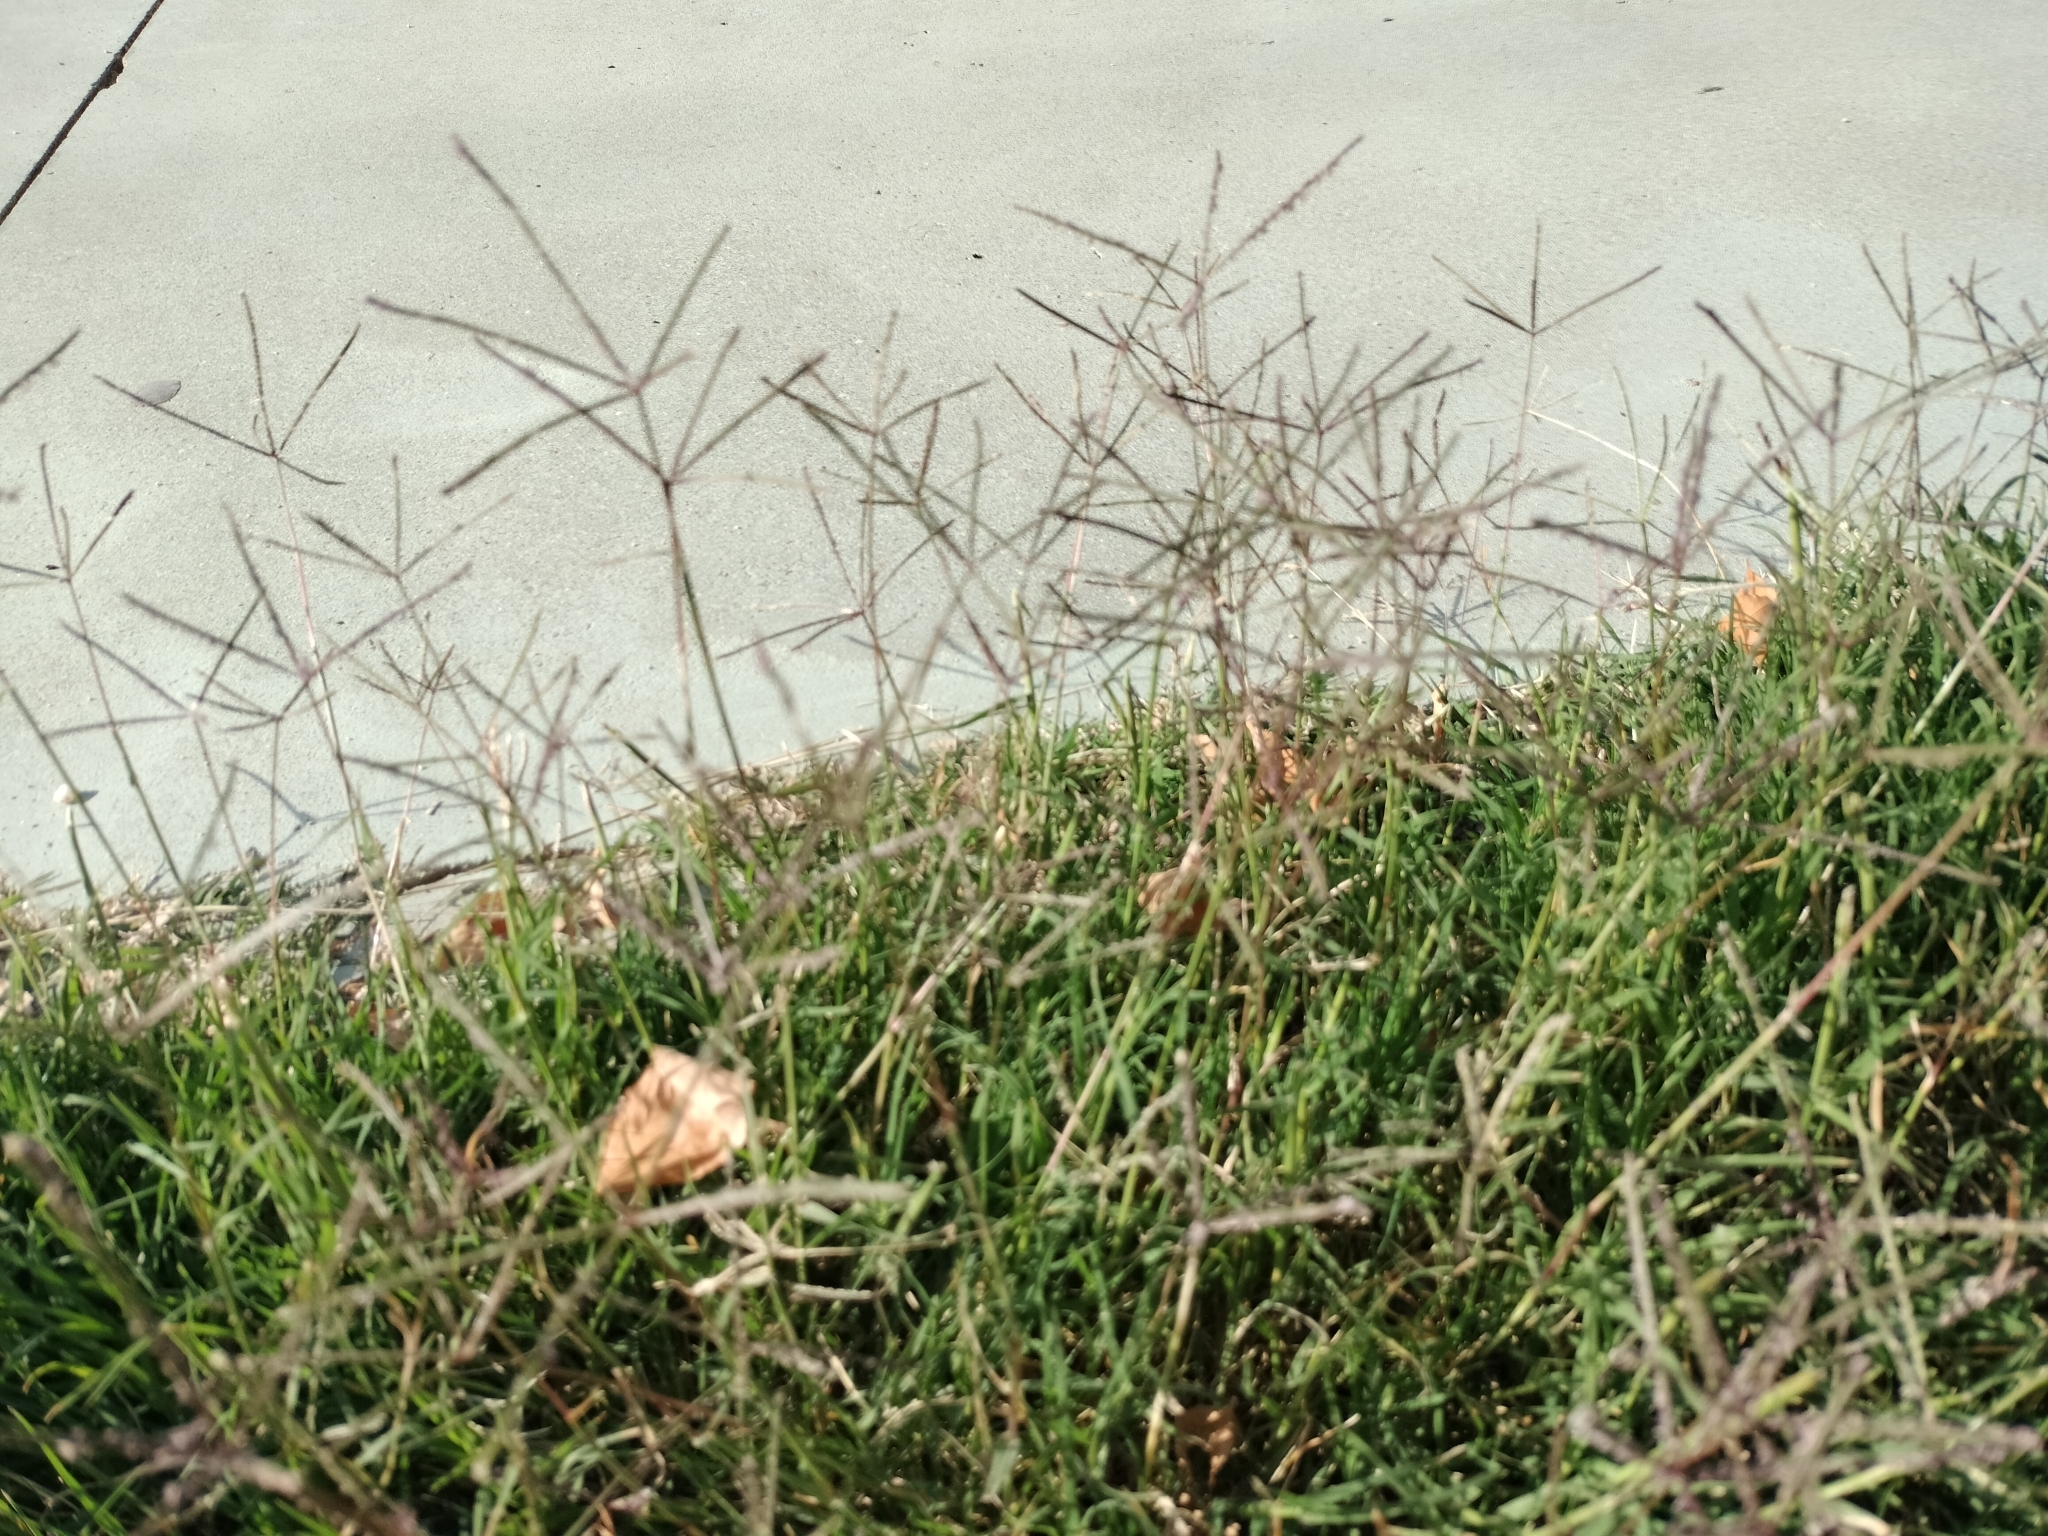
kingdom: Plantae
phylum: Tracheophyta
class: Liliopsida
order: Poales
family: Poaceae
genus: Cynodon
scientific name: Cynodon dactylon
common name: Bermuda grass
